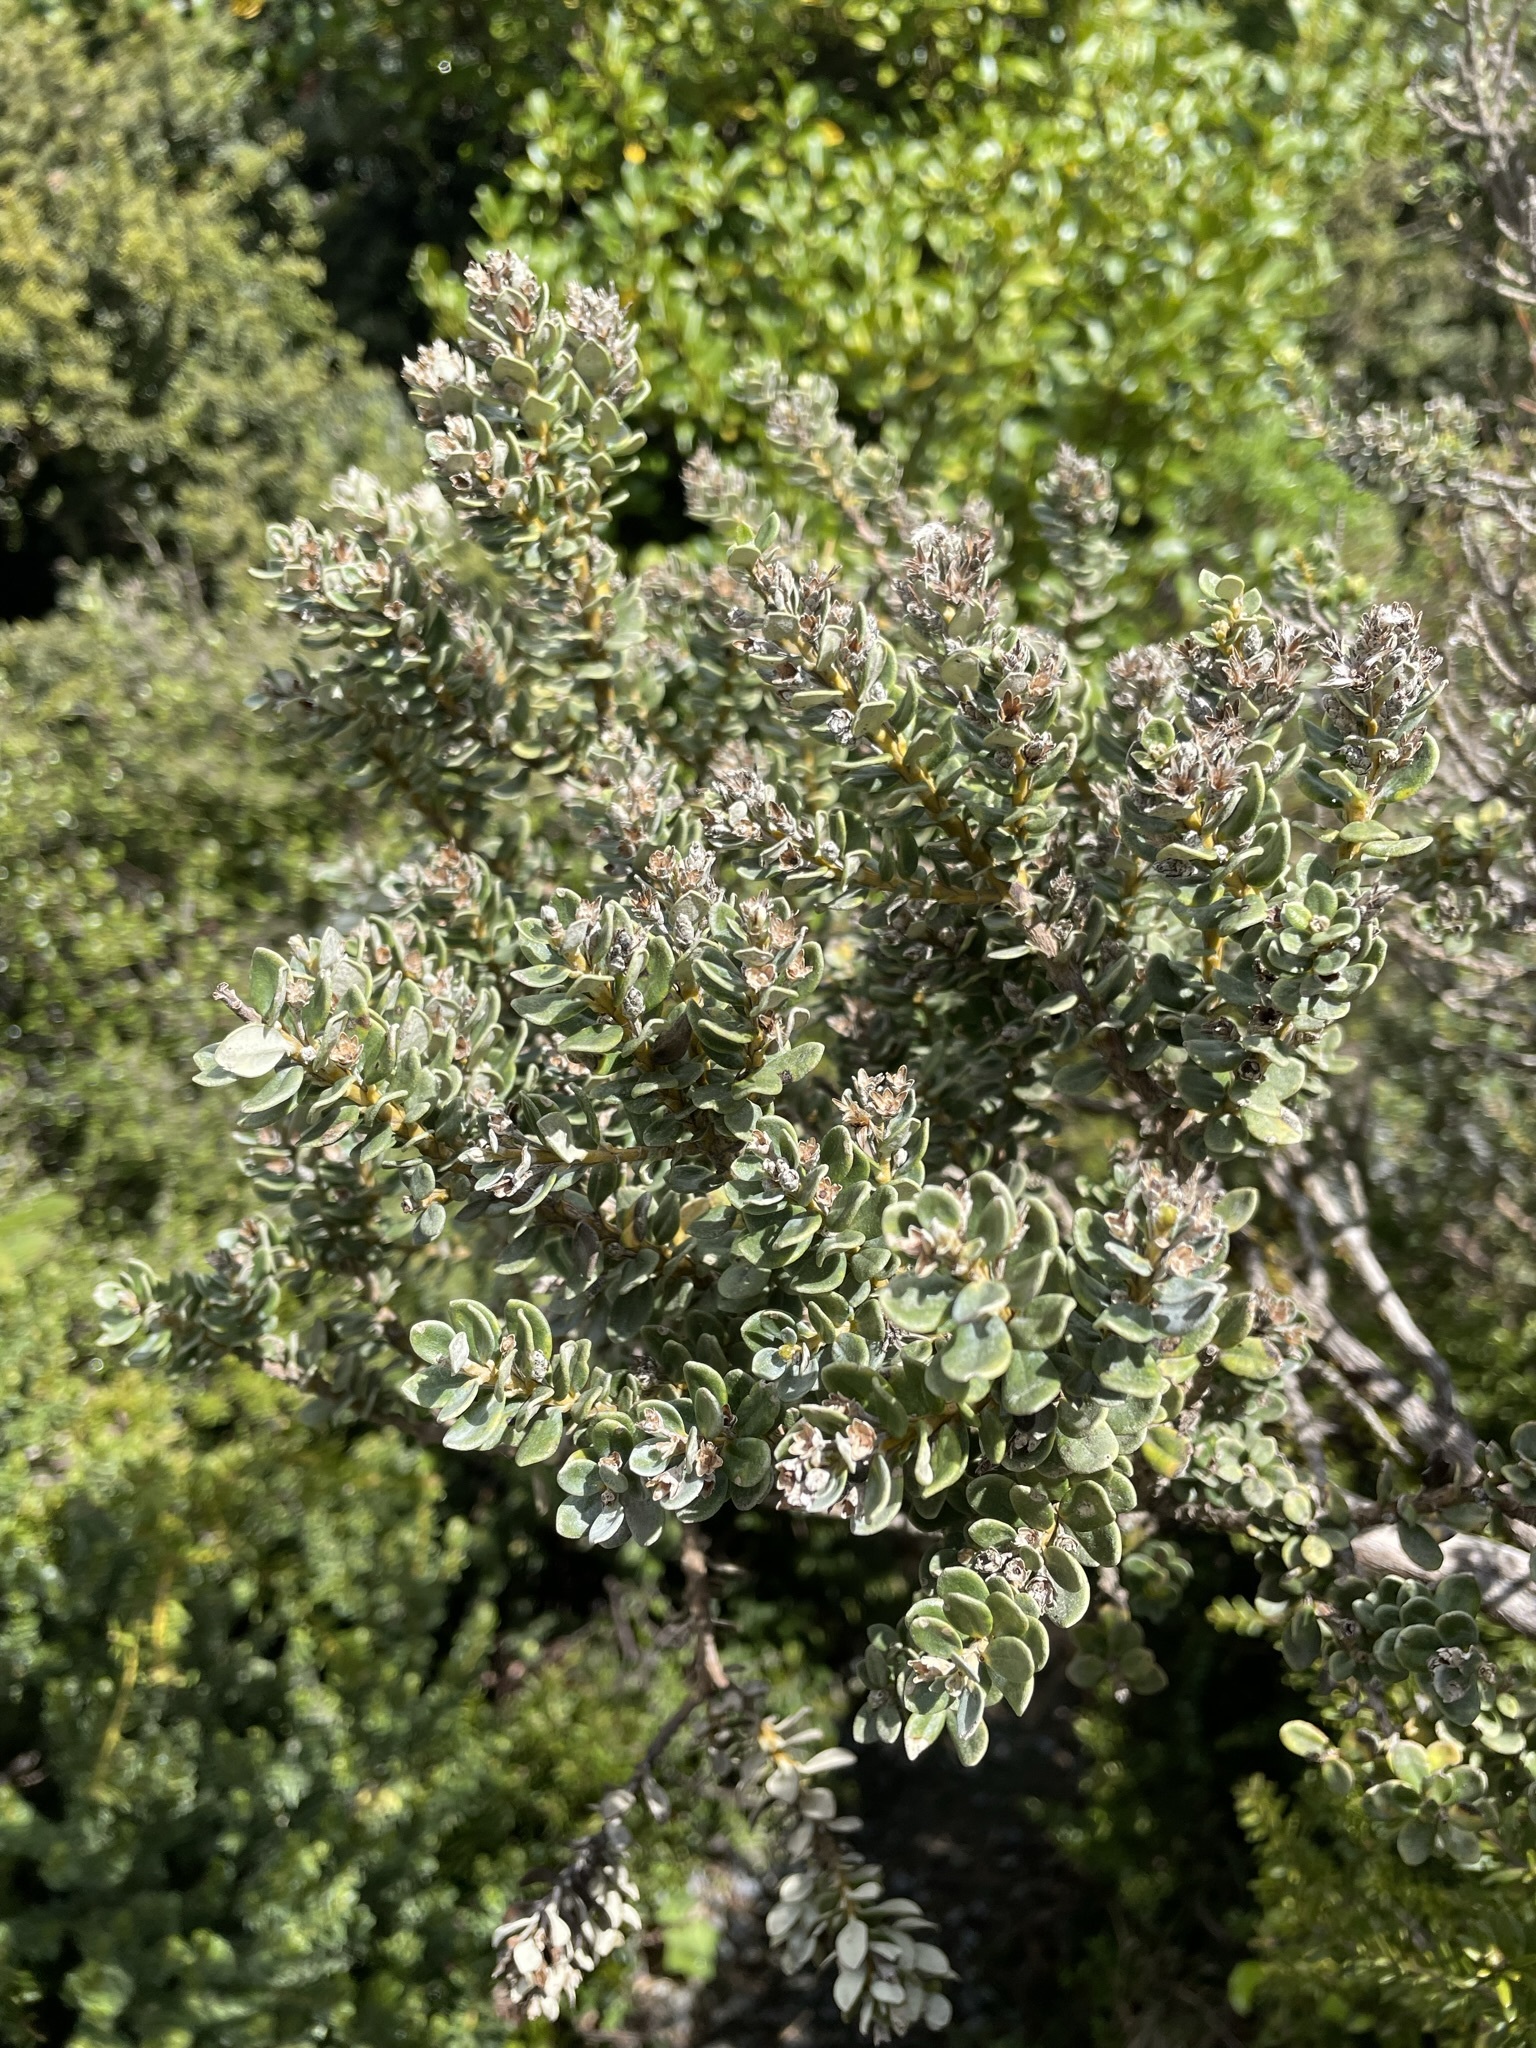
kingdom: Plantae
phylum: Tracheophyta
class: Magnoliopsida
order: Asterales
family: Asteraceae
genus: Olearia
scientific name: Olearia nummularifolia
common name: Sticky daisybush
